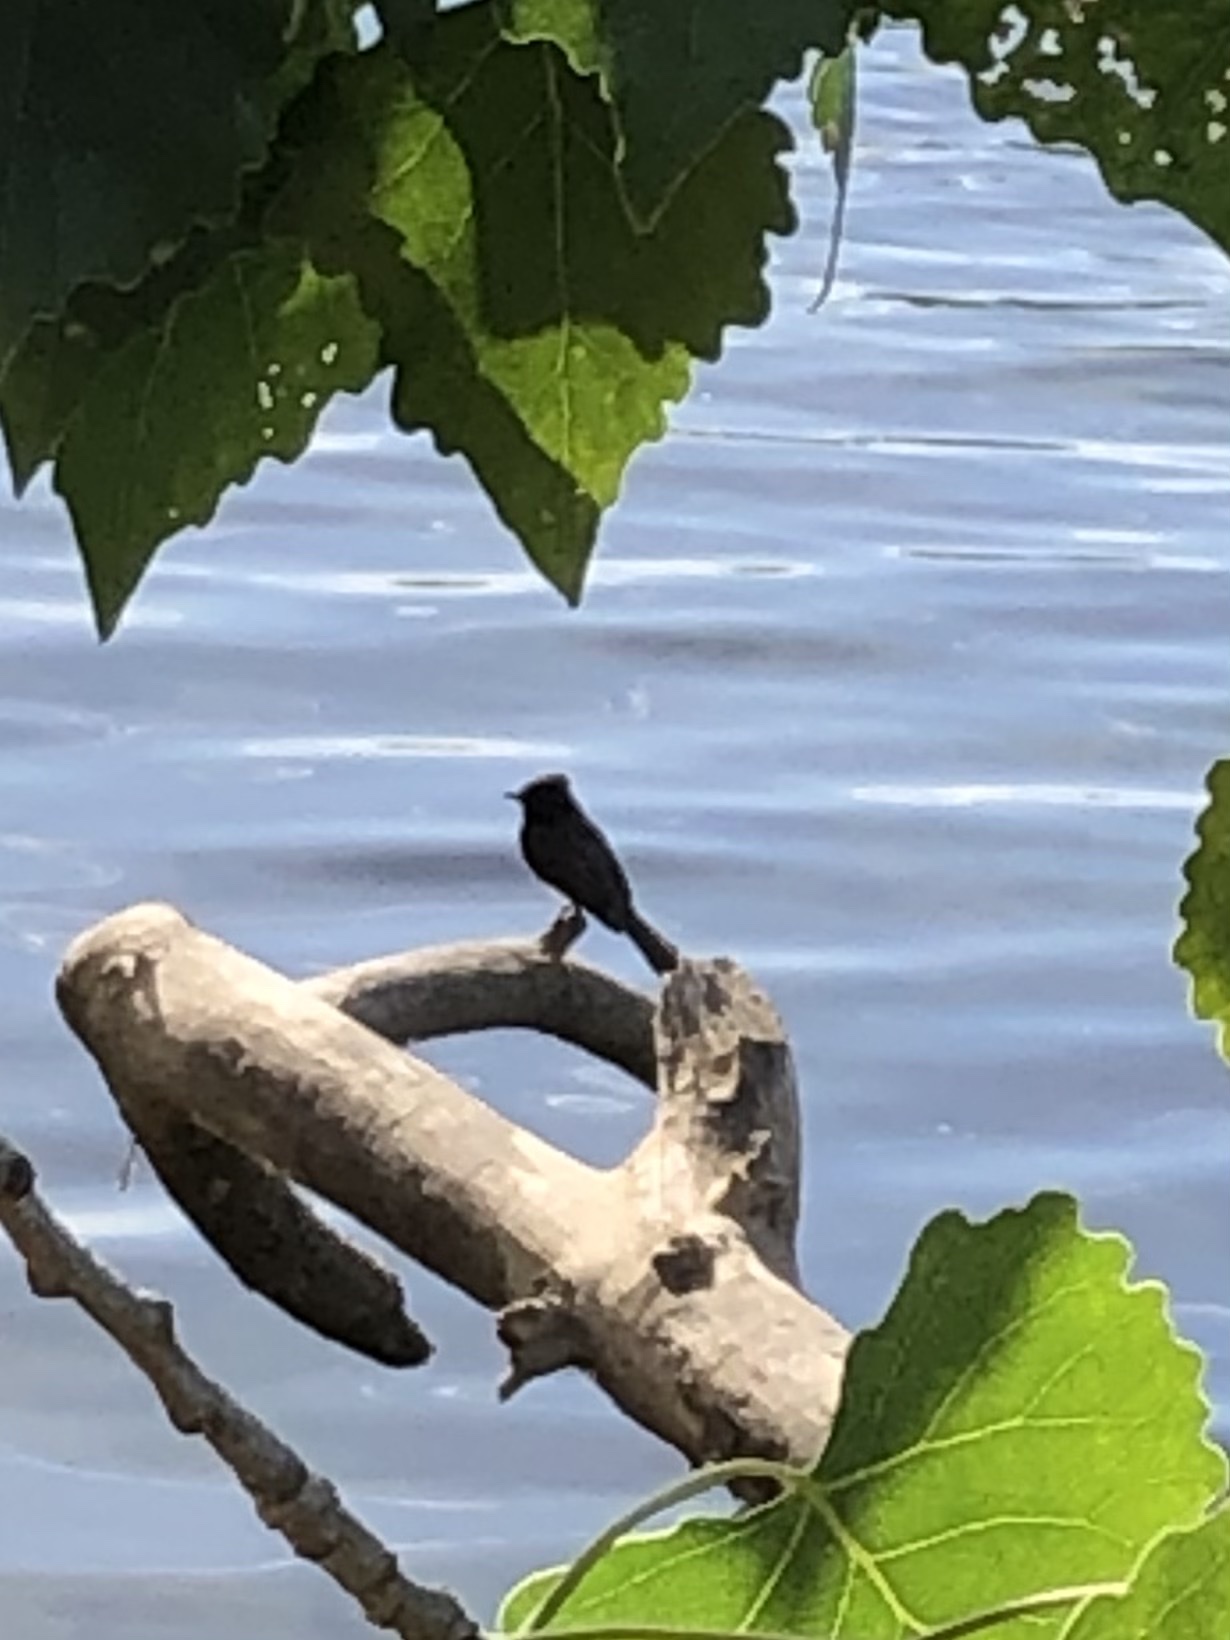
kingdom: Animalia
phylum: Chordata
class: Aves
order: Passeriformes
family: Tyrannidae
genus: Sayornis
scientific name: Sayornis nigricans
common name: Black phoebe
